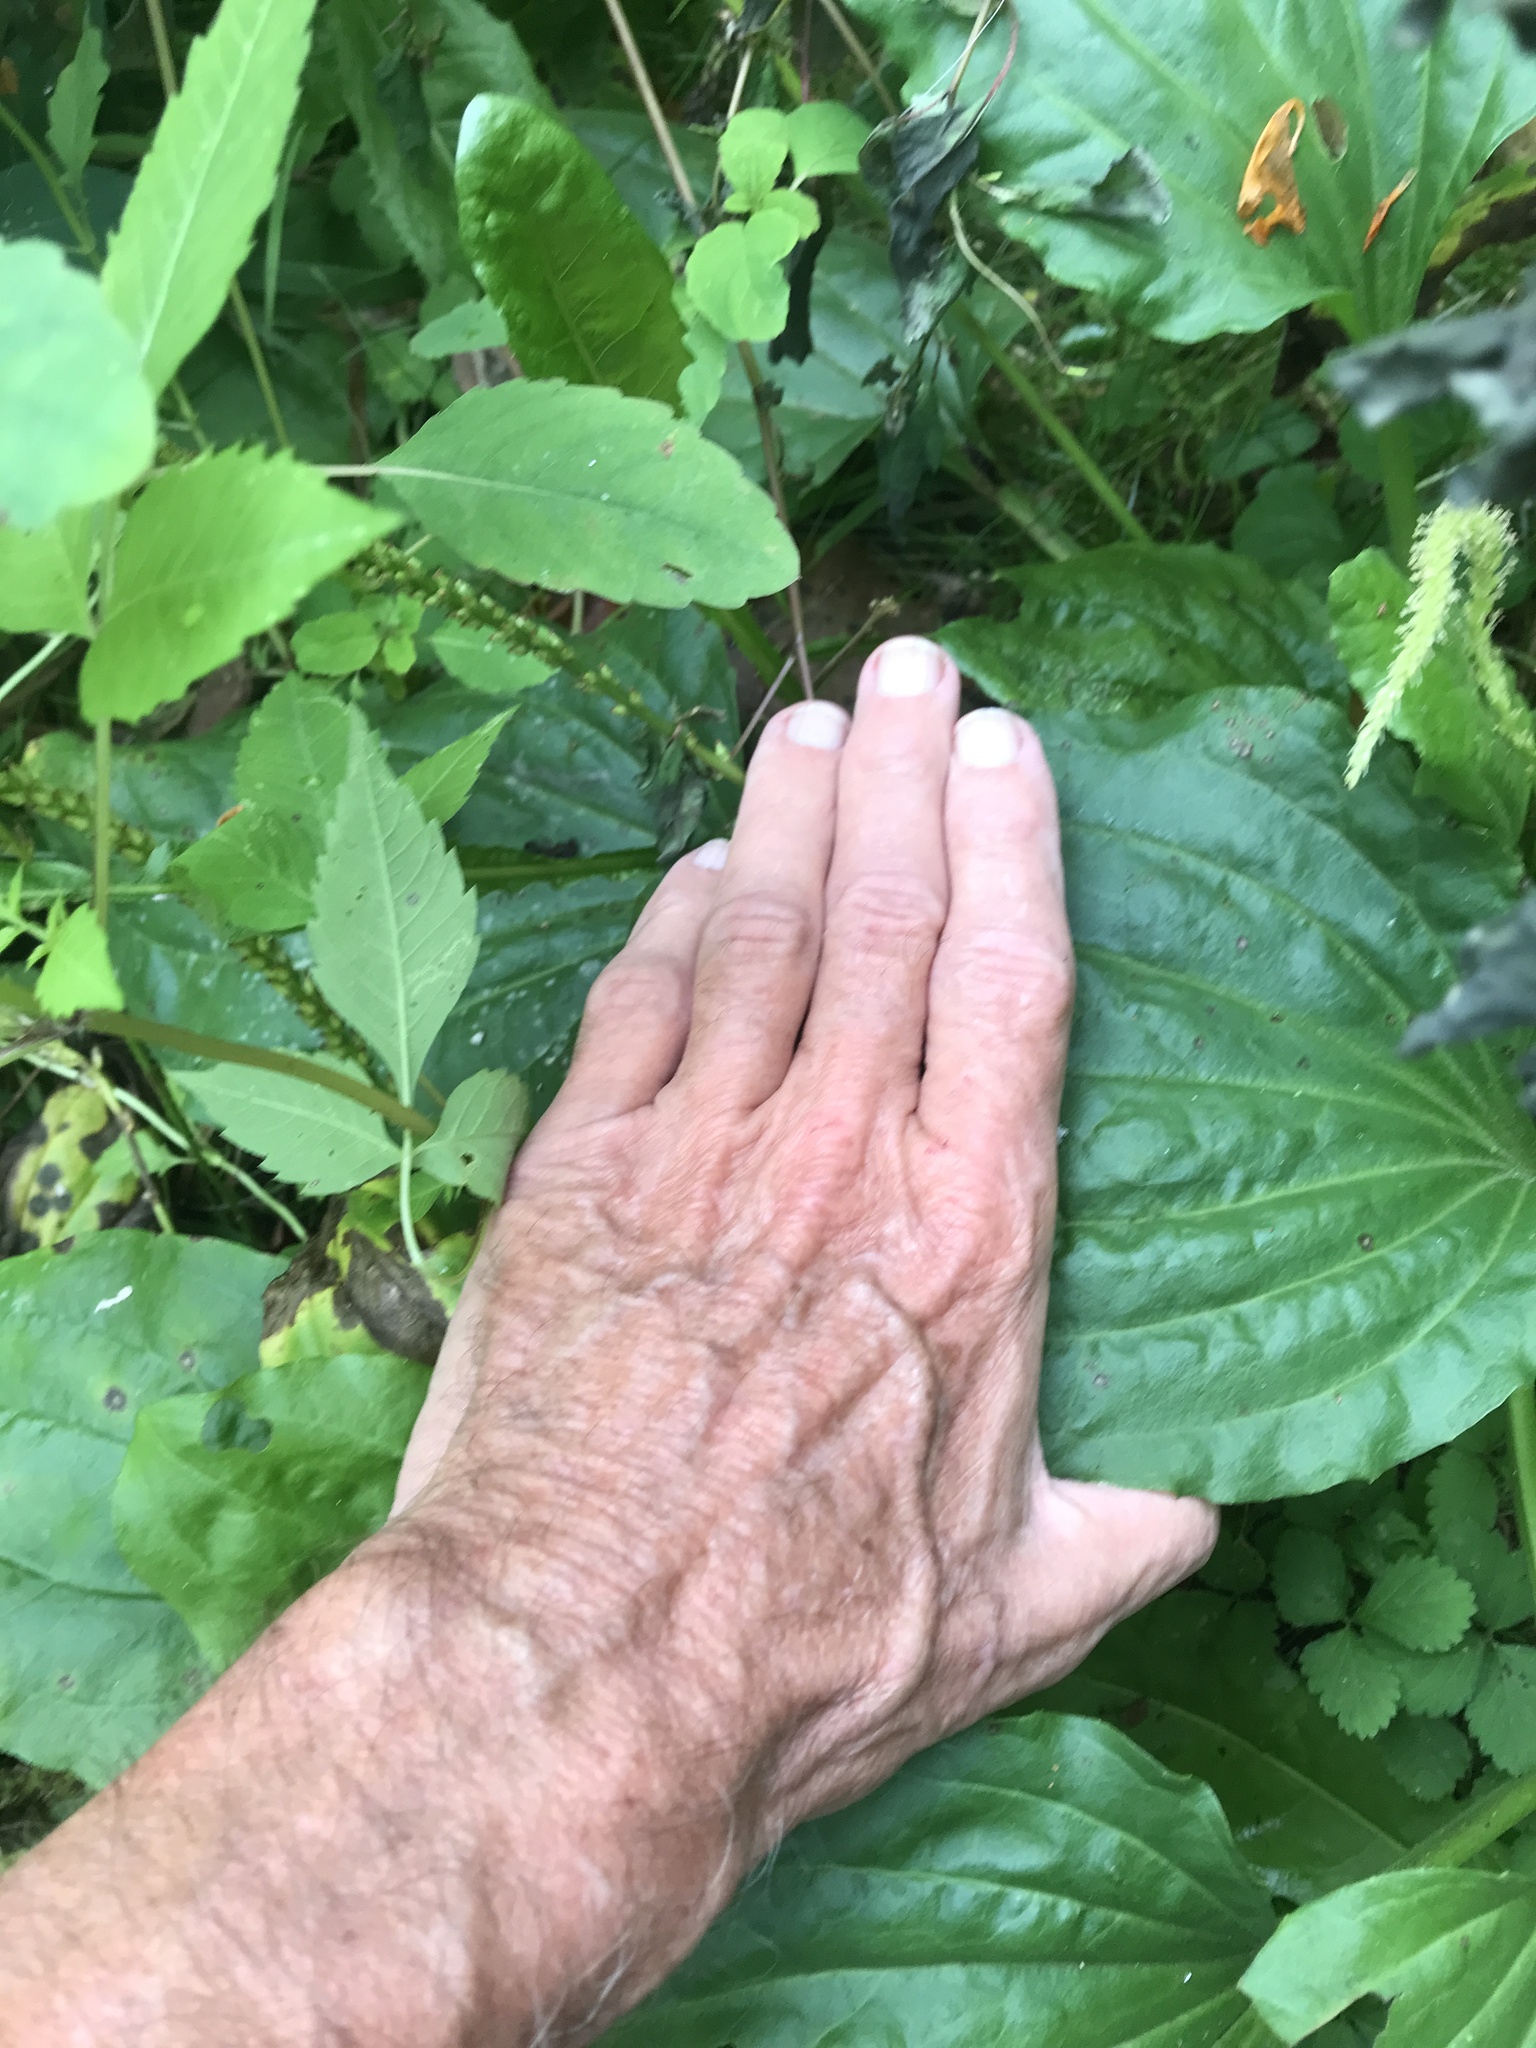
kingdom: Plantae
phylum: Tracheophyta
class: Magnoliopsida
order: Lamiales
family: Plantaginaceae
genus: Plantago
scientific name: Plantago rugelii
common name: American plantain
